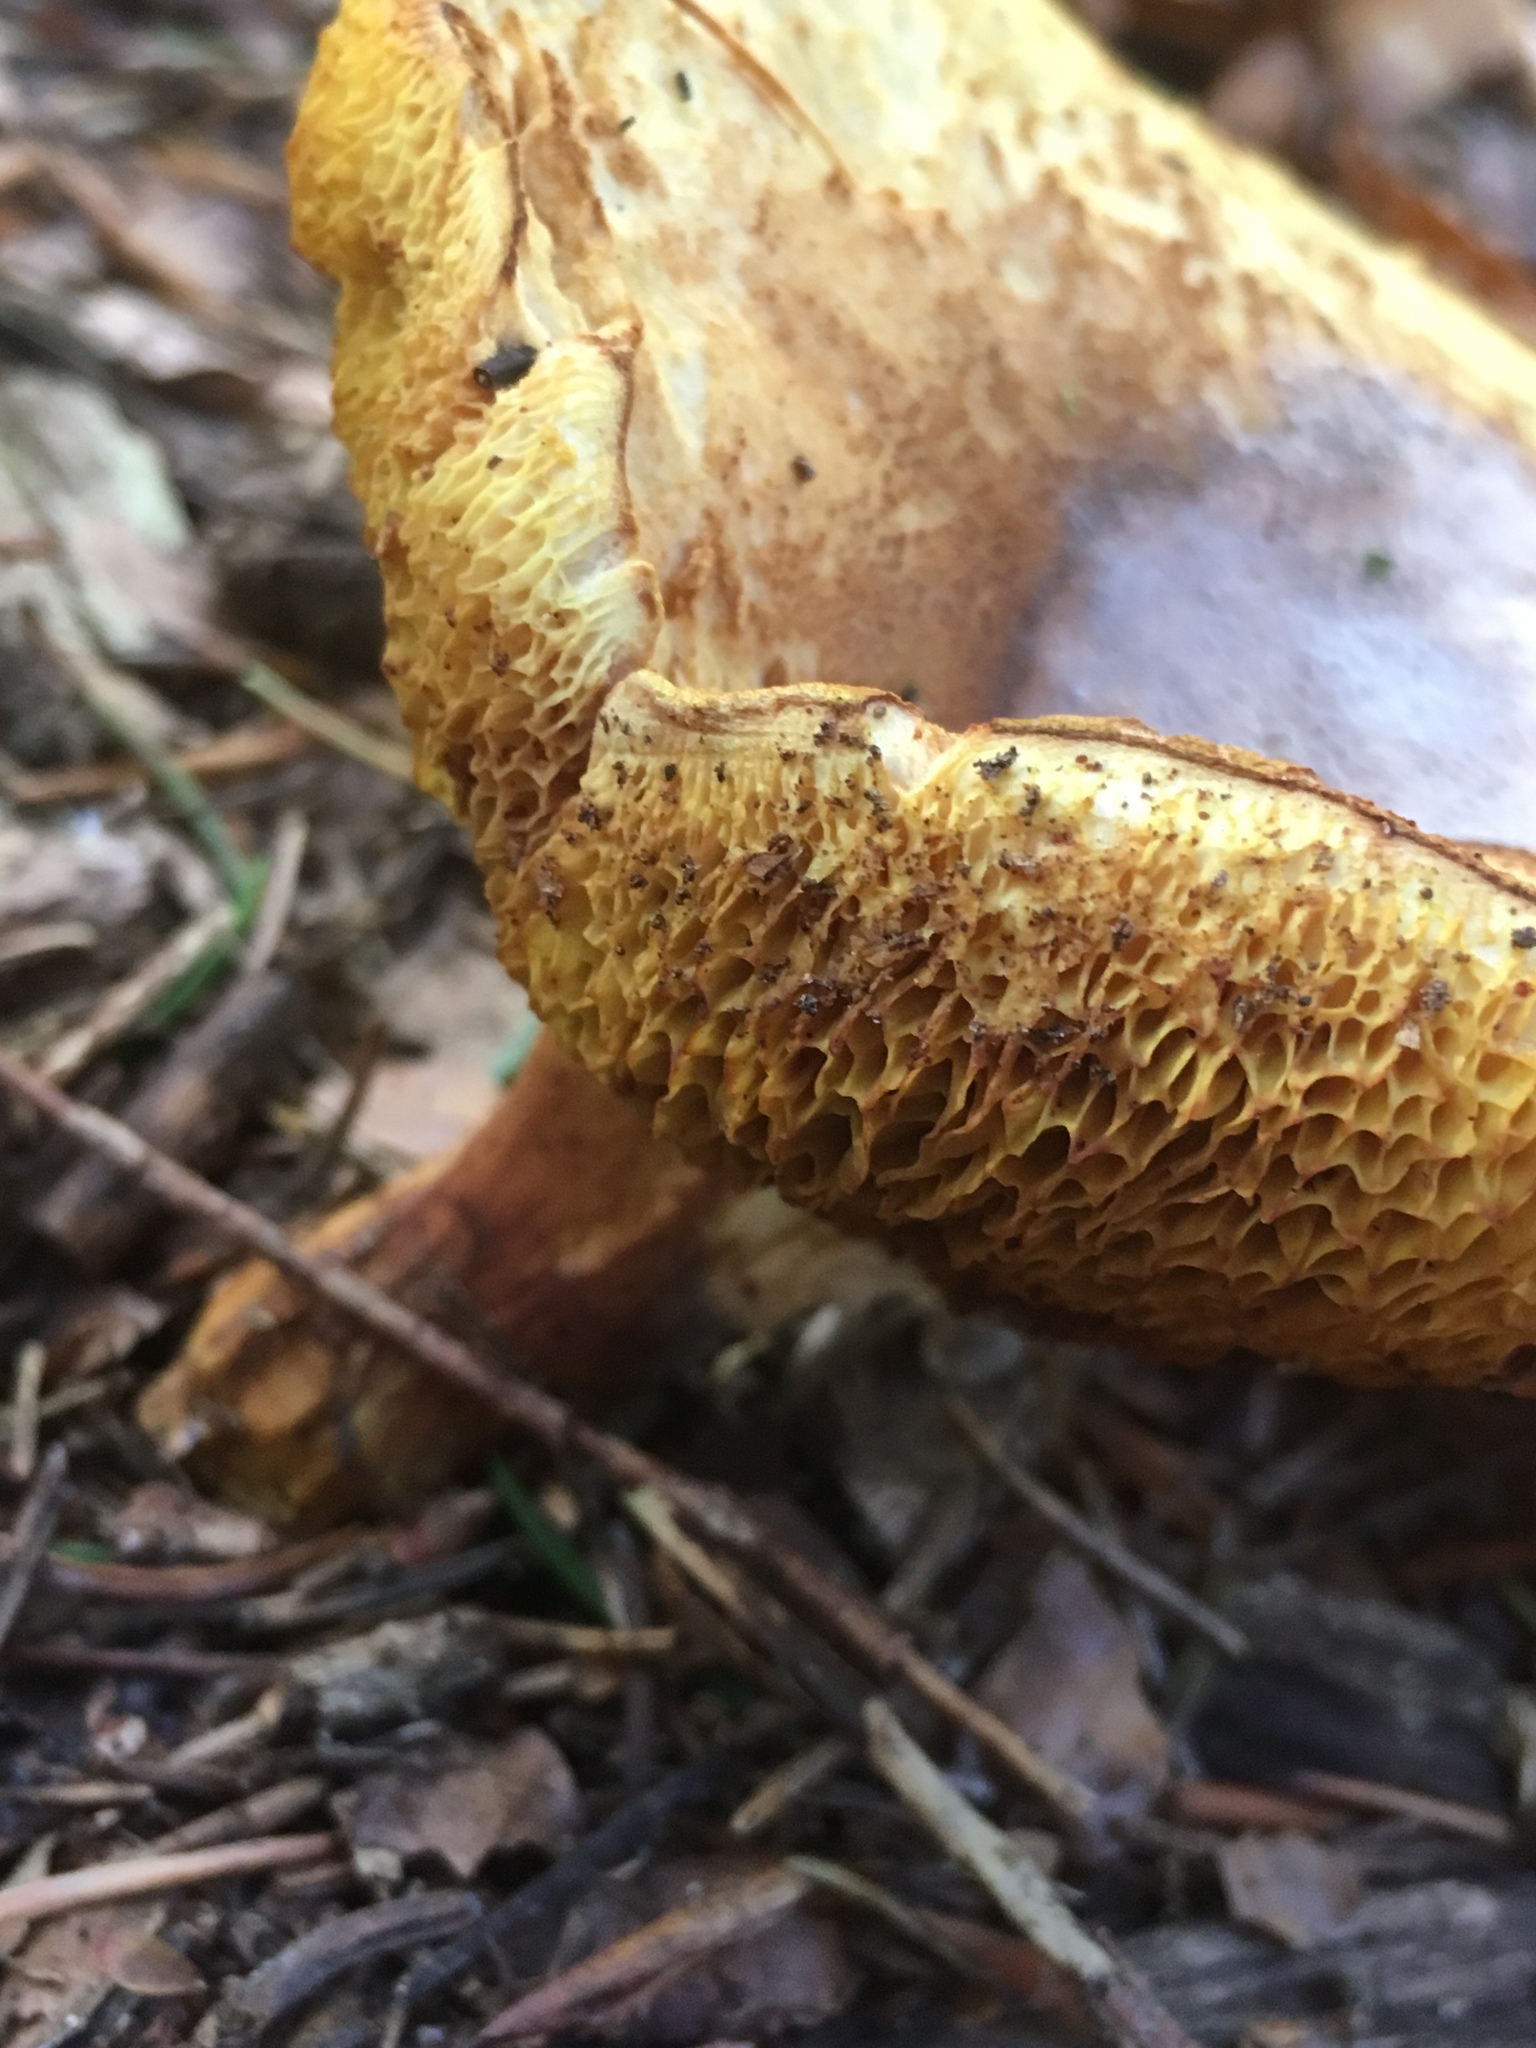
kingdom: Fungi
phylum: Basidiomycota
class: Agaricomycetes
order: Boletales
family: Boletaceae
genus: Xerocomellus
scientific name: Xerocomellus chrysenteron
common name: Red-cracking bolete
